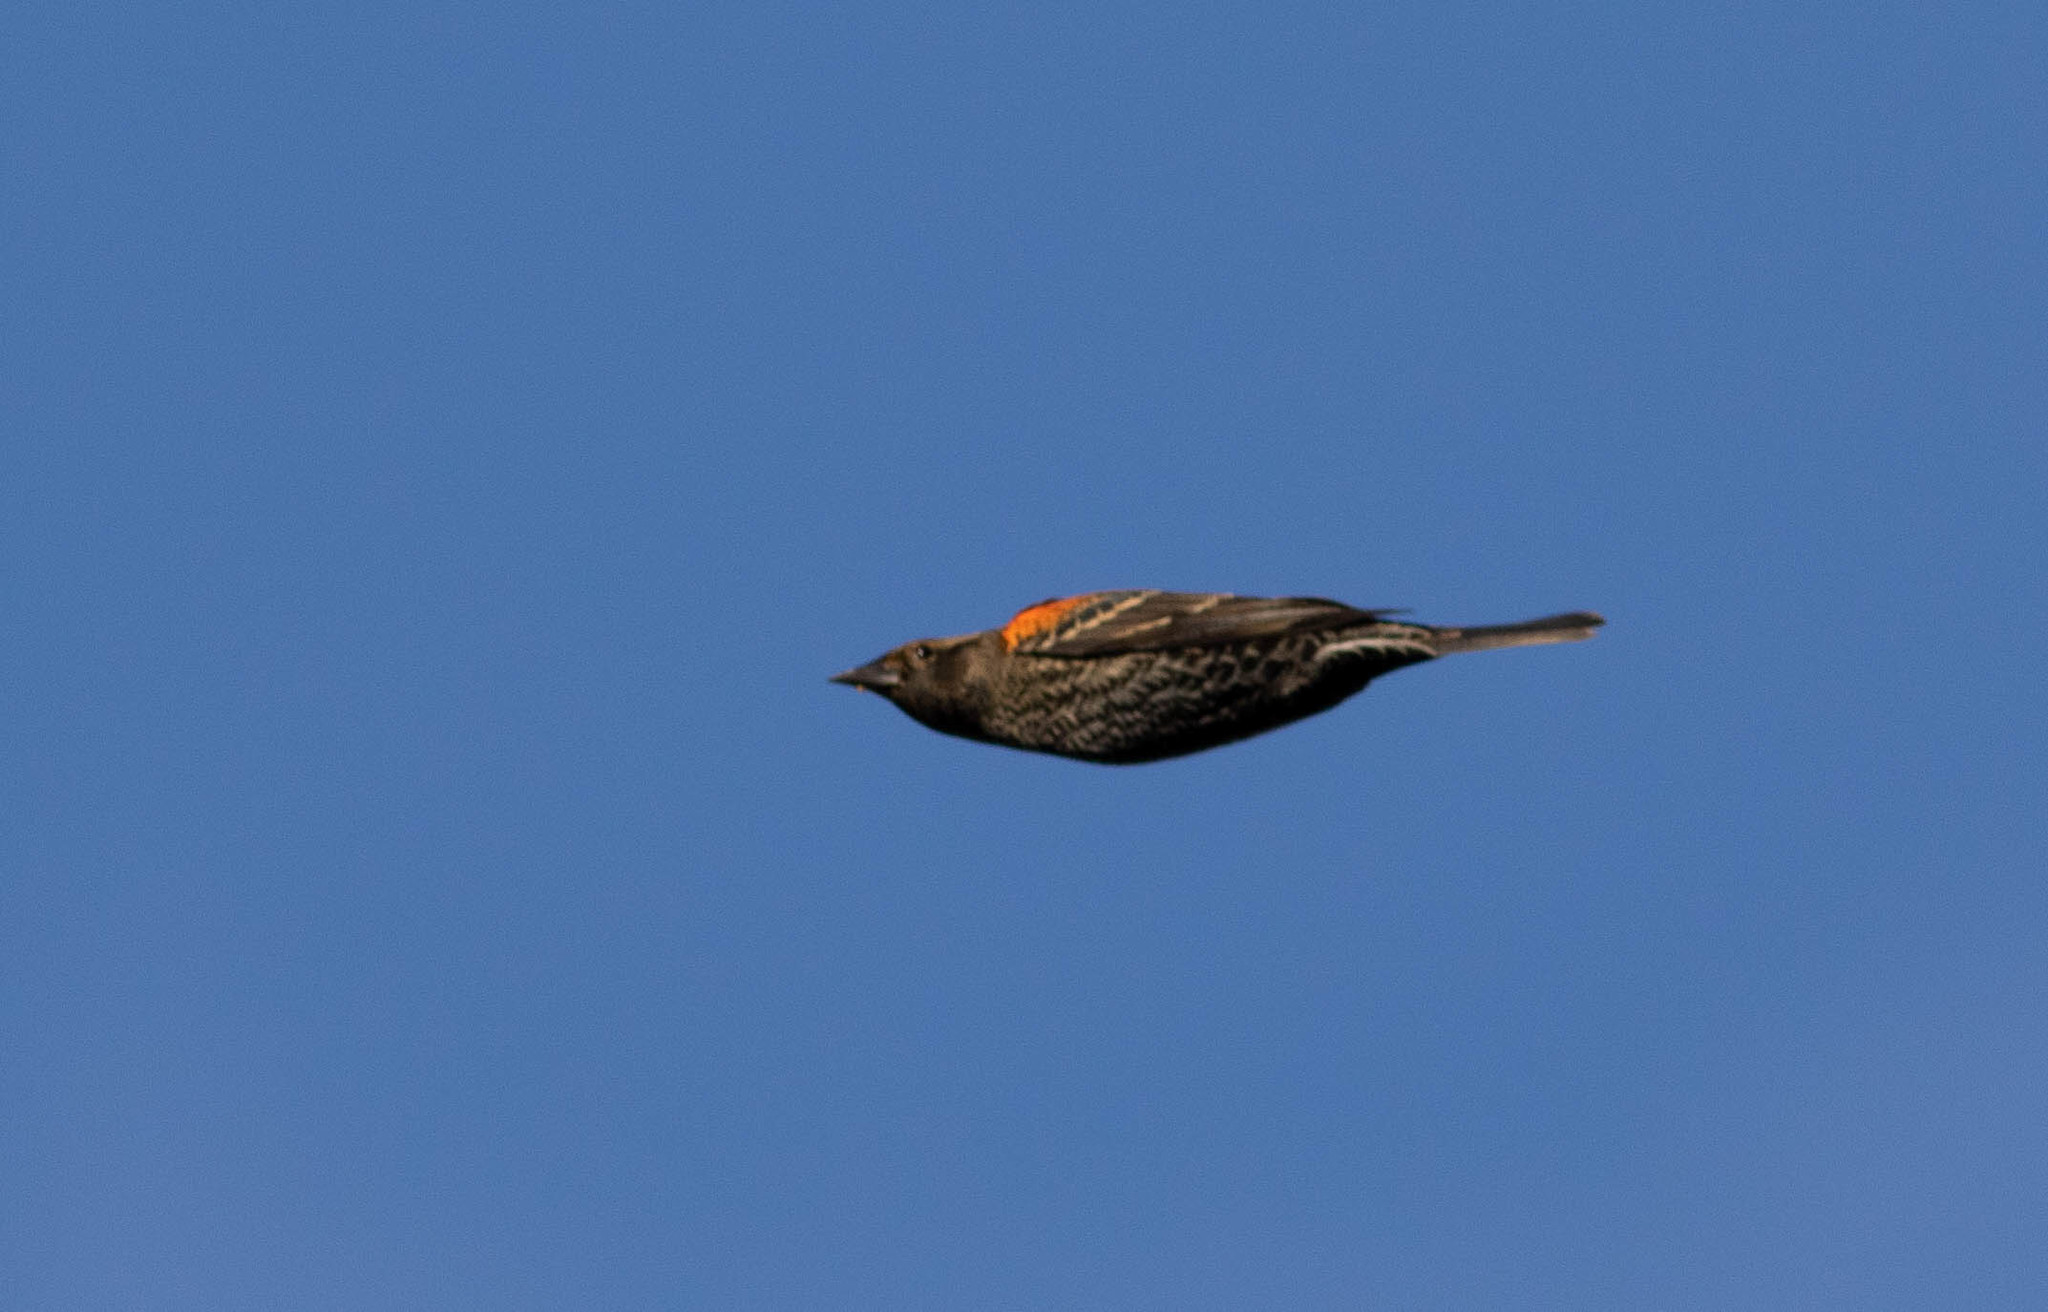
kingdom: Animalia
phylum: Chordata
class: Aves
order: Passeriformes
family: Icteridae
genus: Agelaius
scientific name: Agelaius phoeniceus
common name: Red-winged blackbird
